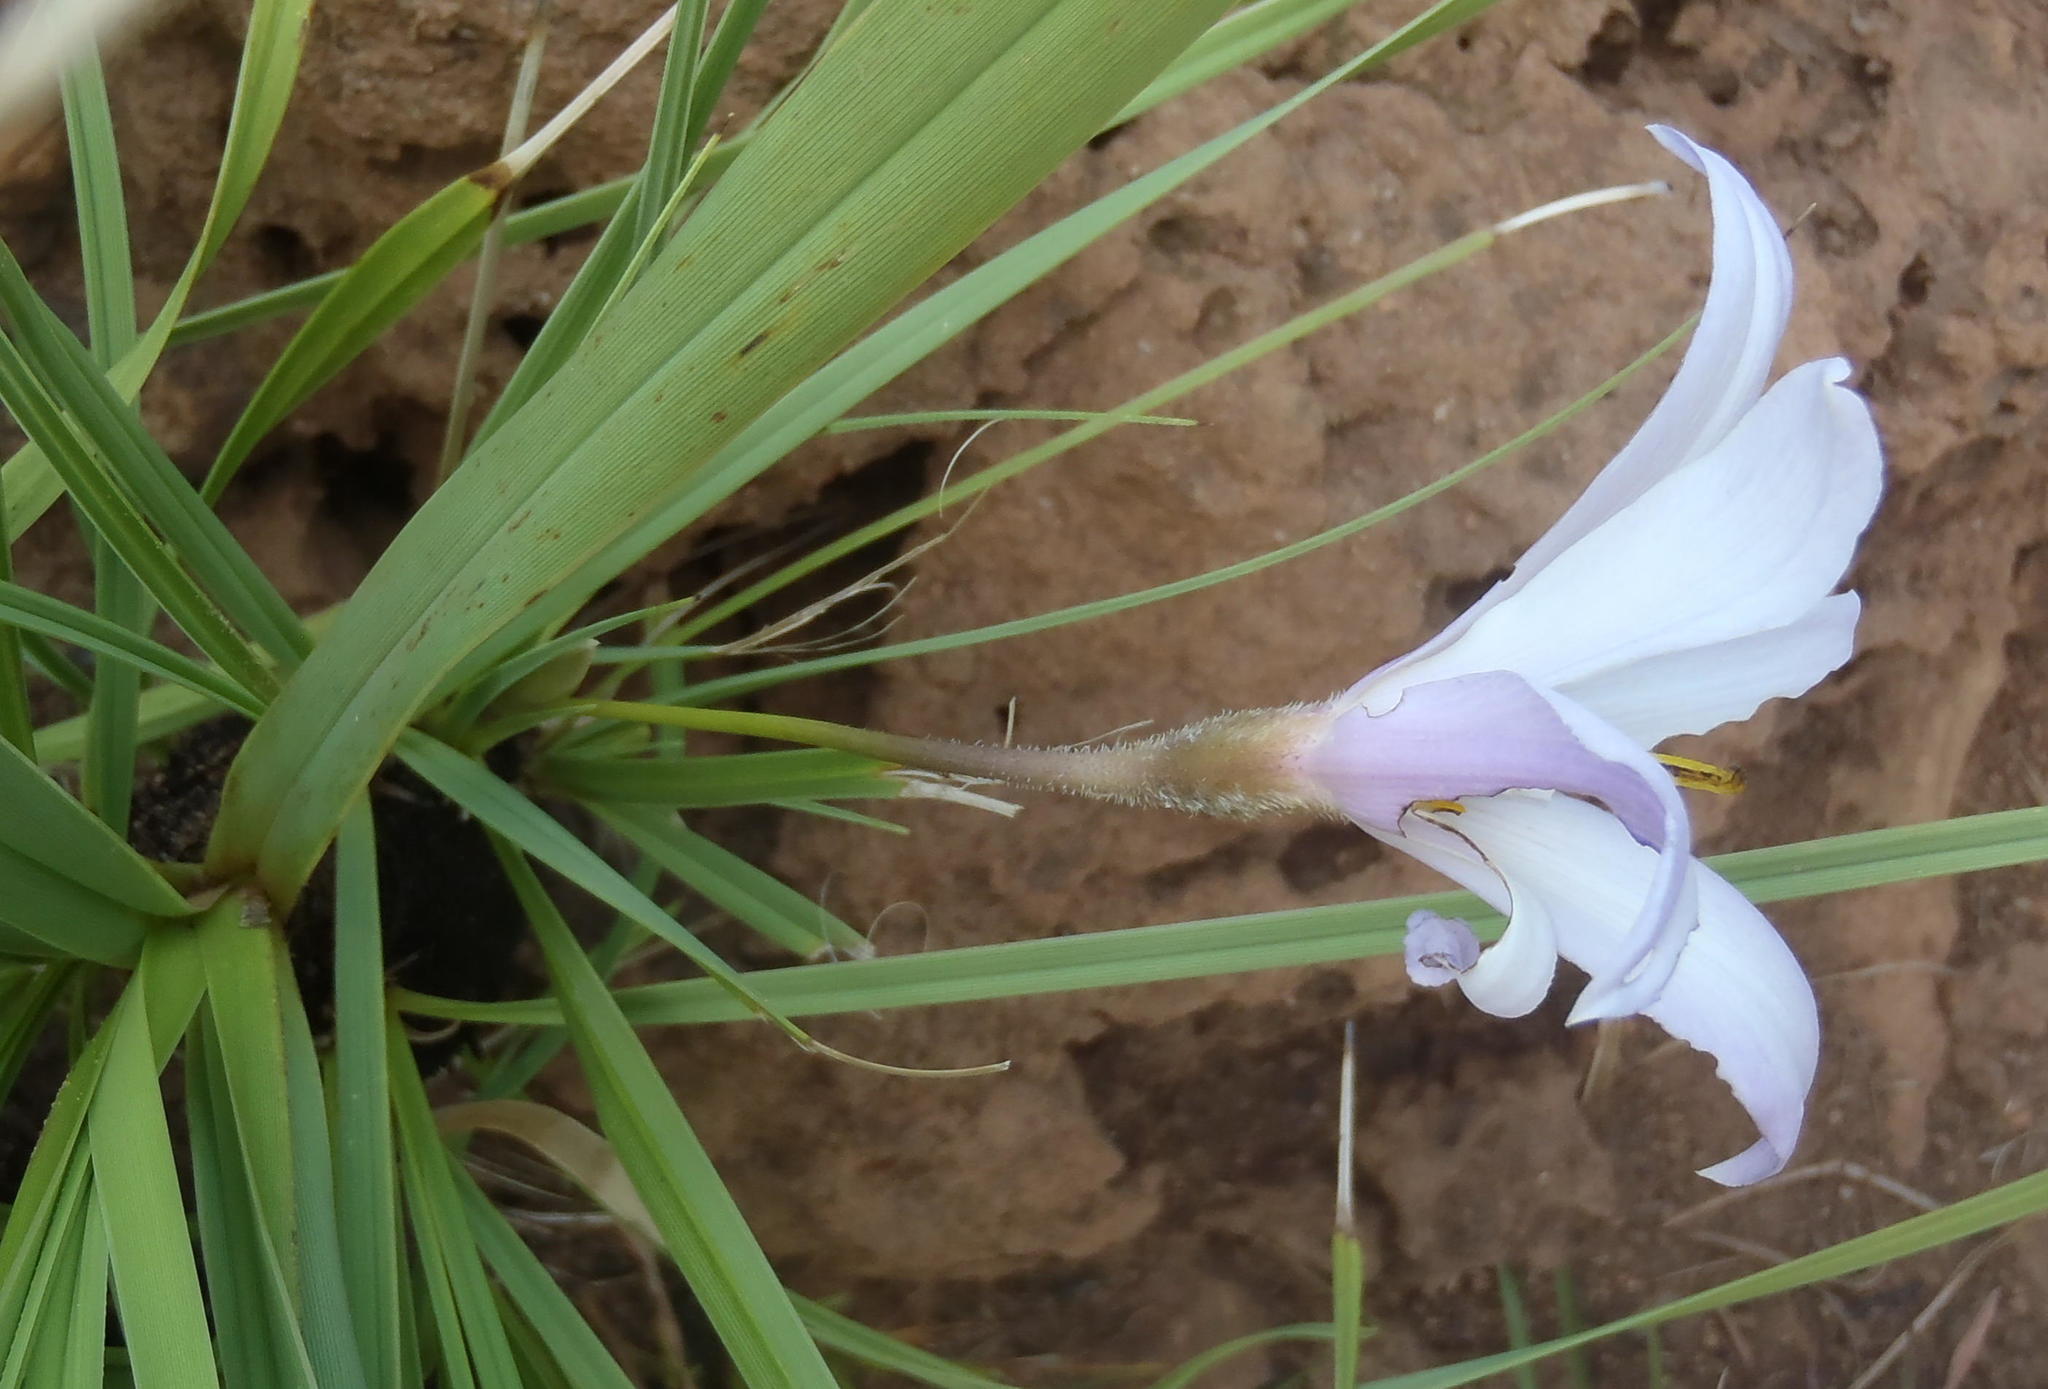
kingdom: Plantae
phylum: Tracheophyta
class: Liliopsida
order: Pandanales
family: Velloziaceae
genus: Xerophyta
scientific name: Xerophyta retinervis
